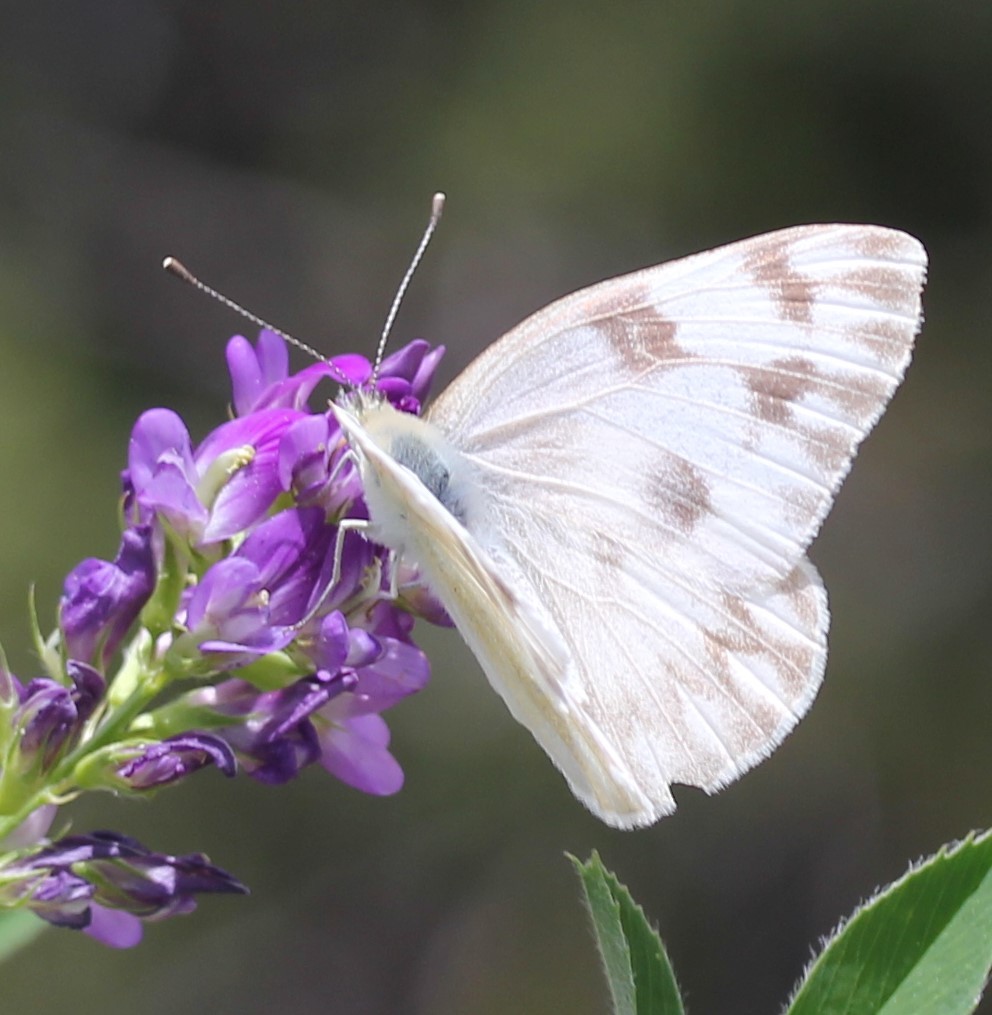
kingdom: Animalia
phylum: Arthropoda
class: Insecta
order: Lepidoptera
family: Pieridae
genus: Pontia
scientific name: Pontia protodice
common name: Checkered white
